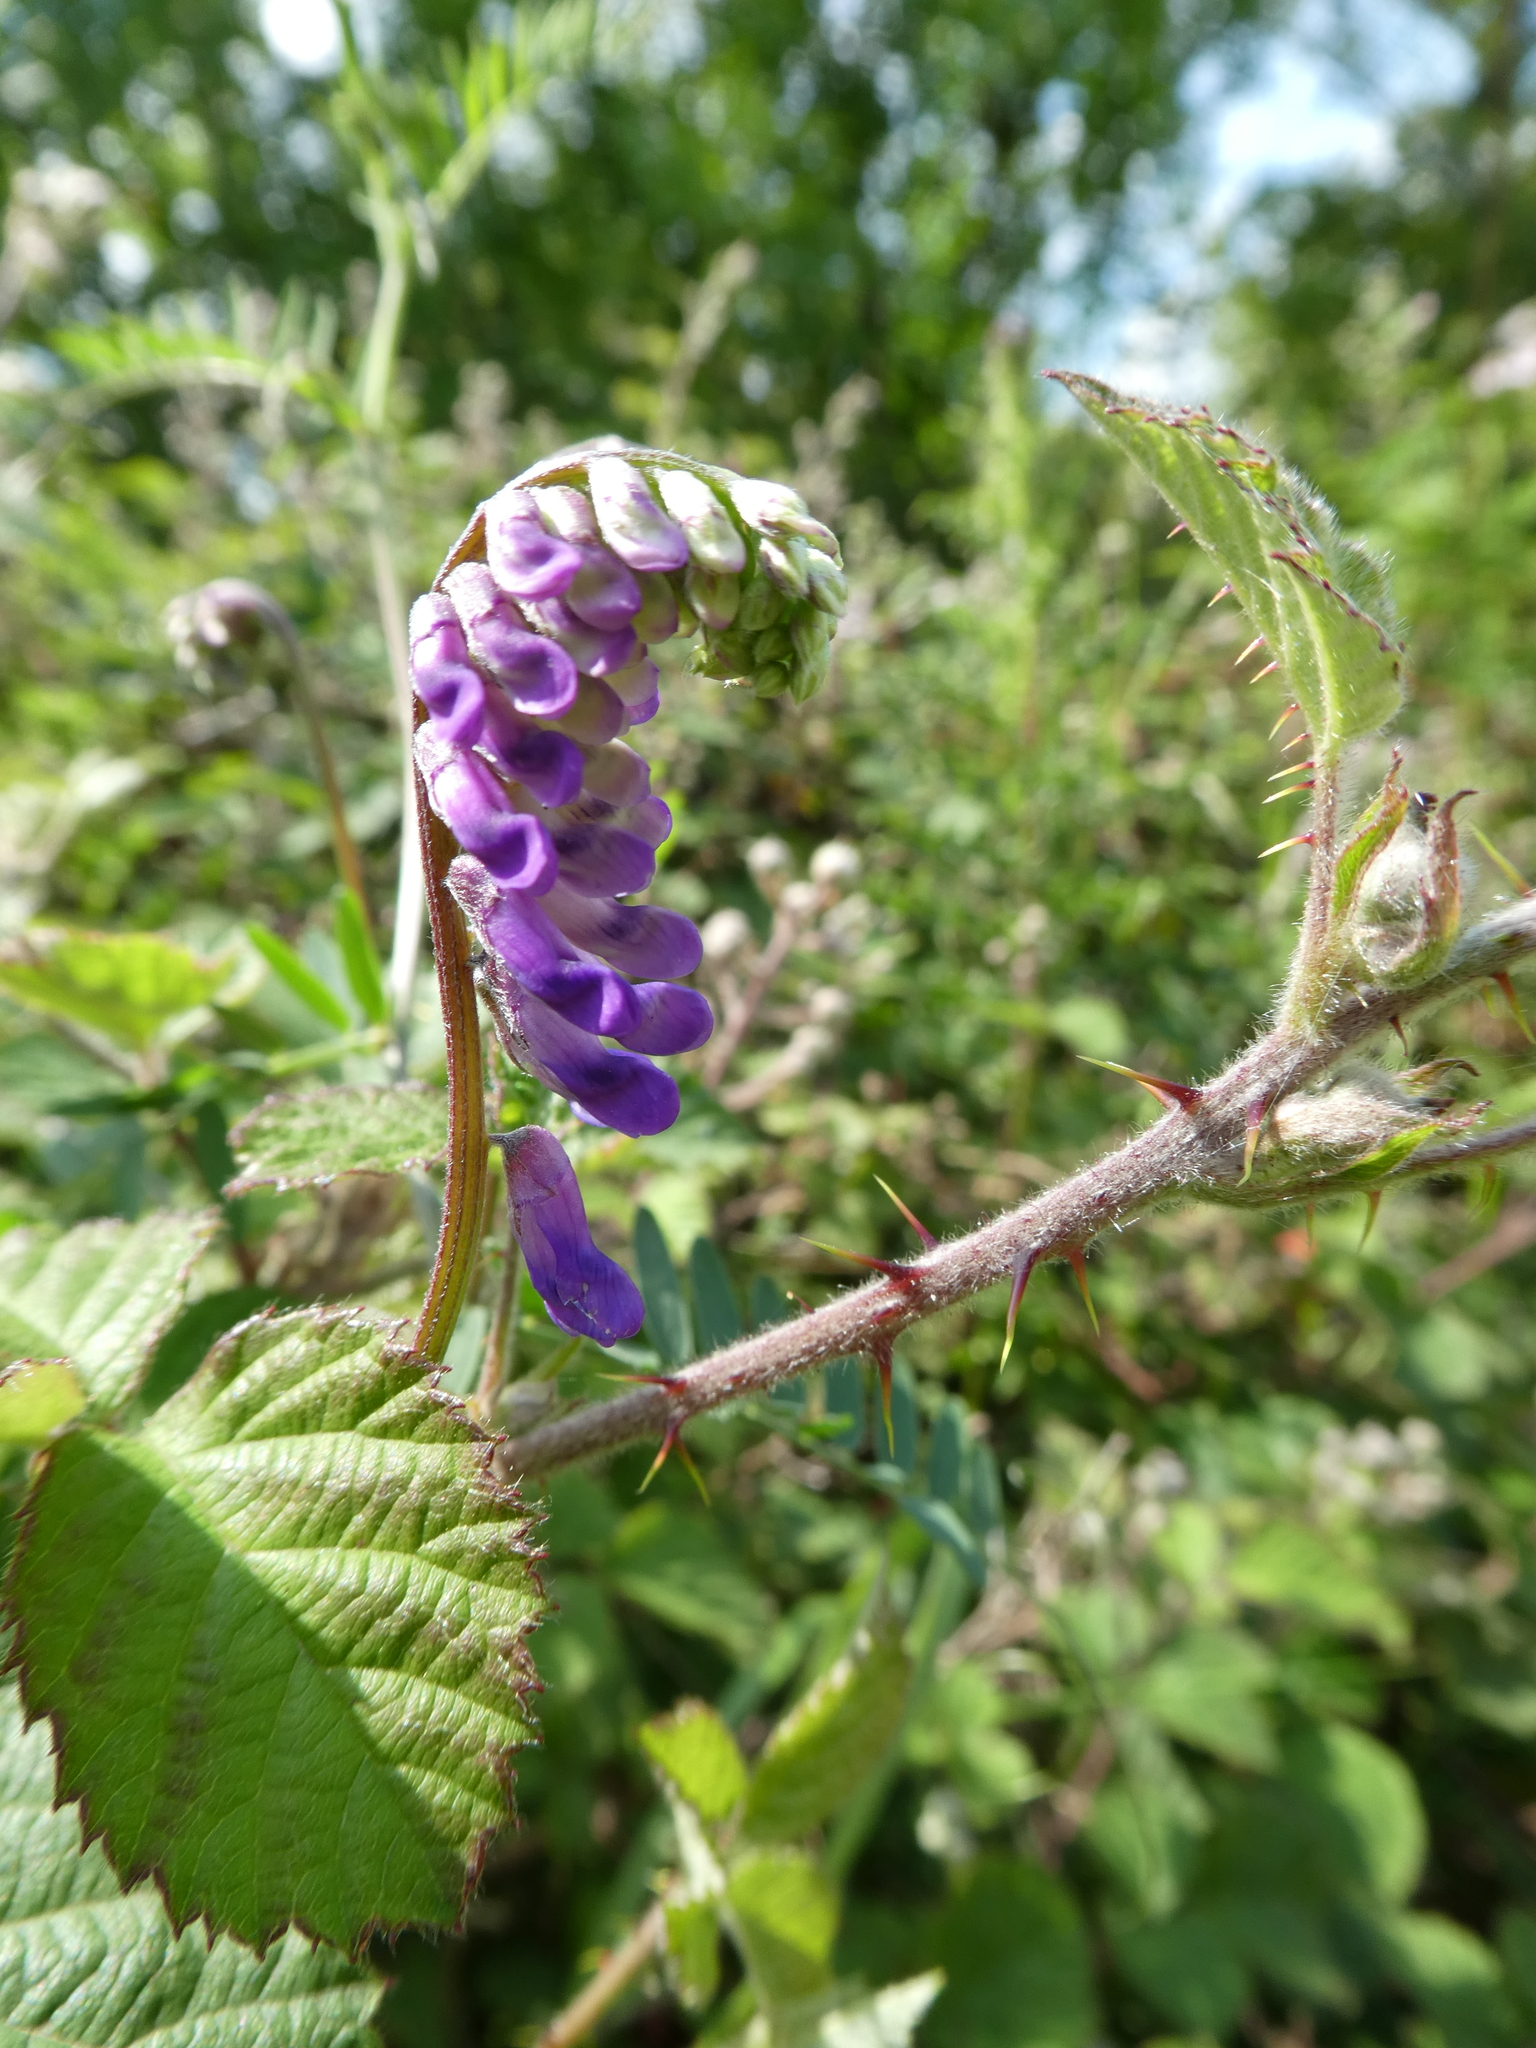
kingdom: Plantae
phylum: Tracheophyta
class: Magnoliopsida
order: Fabales
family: Fabaceae
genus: Vicia
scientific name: Vicia cracca
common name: Bird vetch
